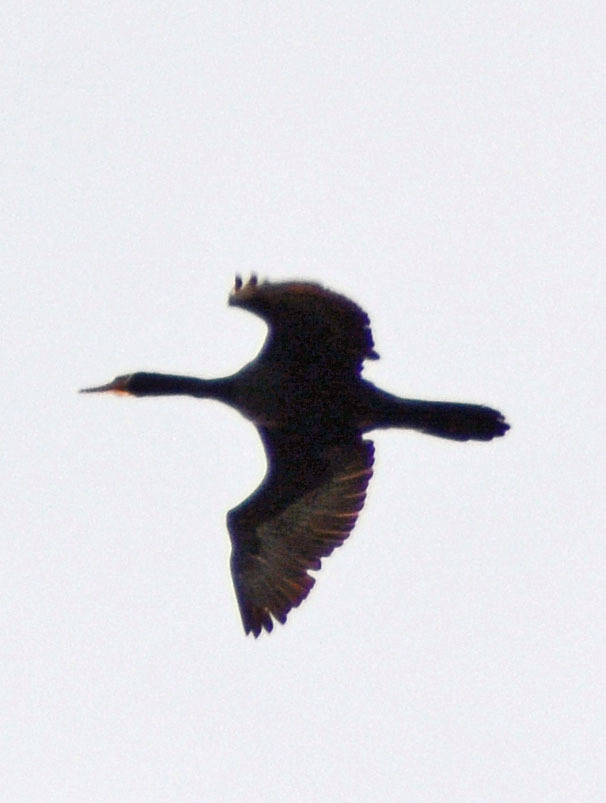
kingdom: Animalia
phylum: Chordata
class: Aves
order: Suliformes
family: Phalacrocoracidae
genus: Phalacrocorax
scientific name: Phalacrocorax brasilianus
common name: Neotropic cormorant
